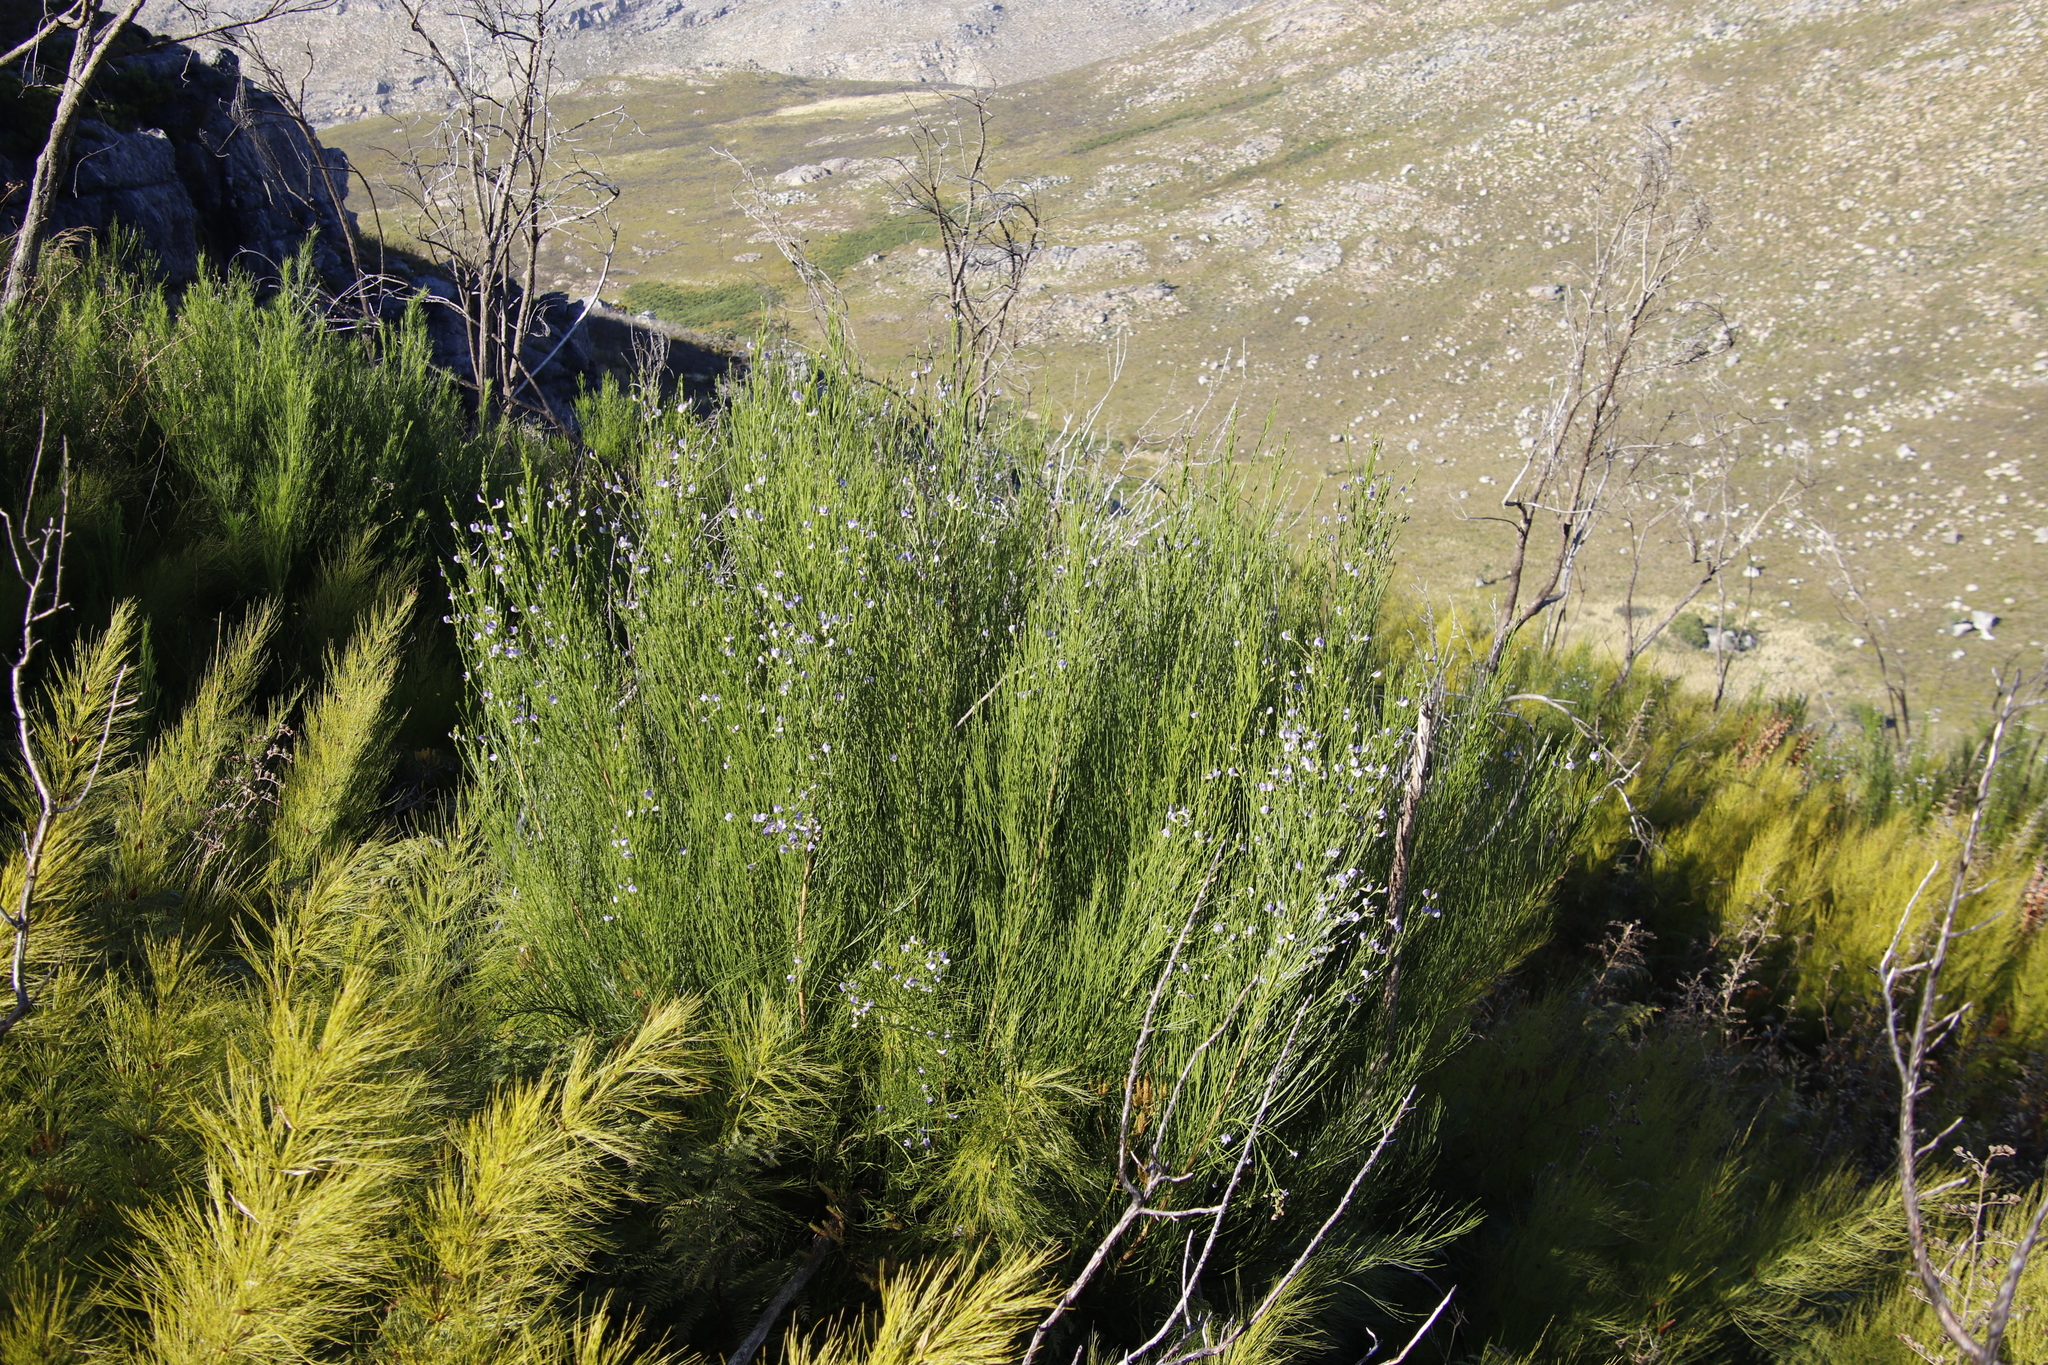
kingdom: Plantae
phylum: Tracheophyta
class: Magnoliopsida
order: Fabales
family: Fabaceae
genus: Psoralea
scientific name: Psoralea usitata
